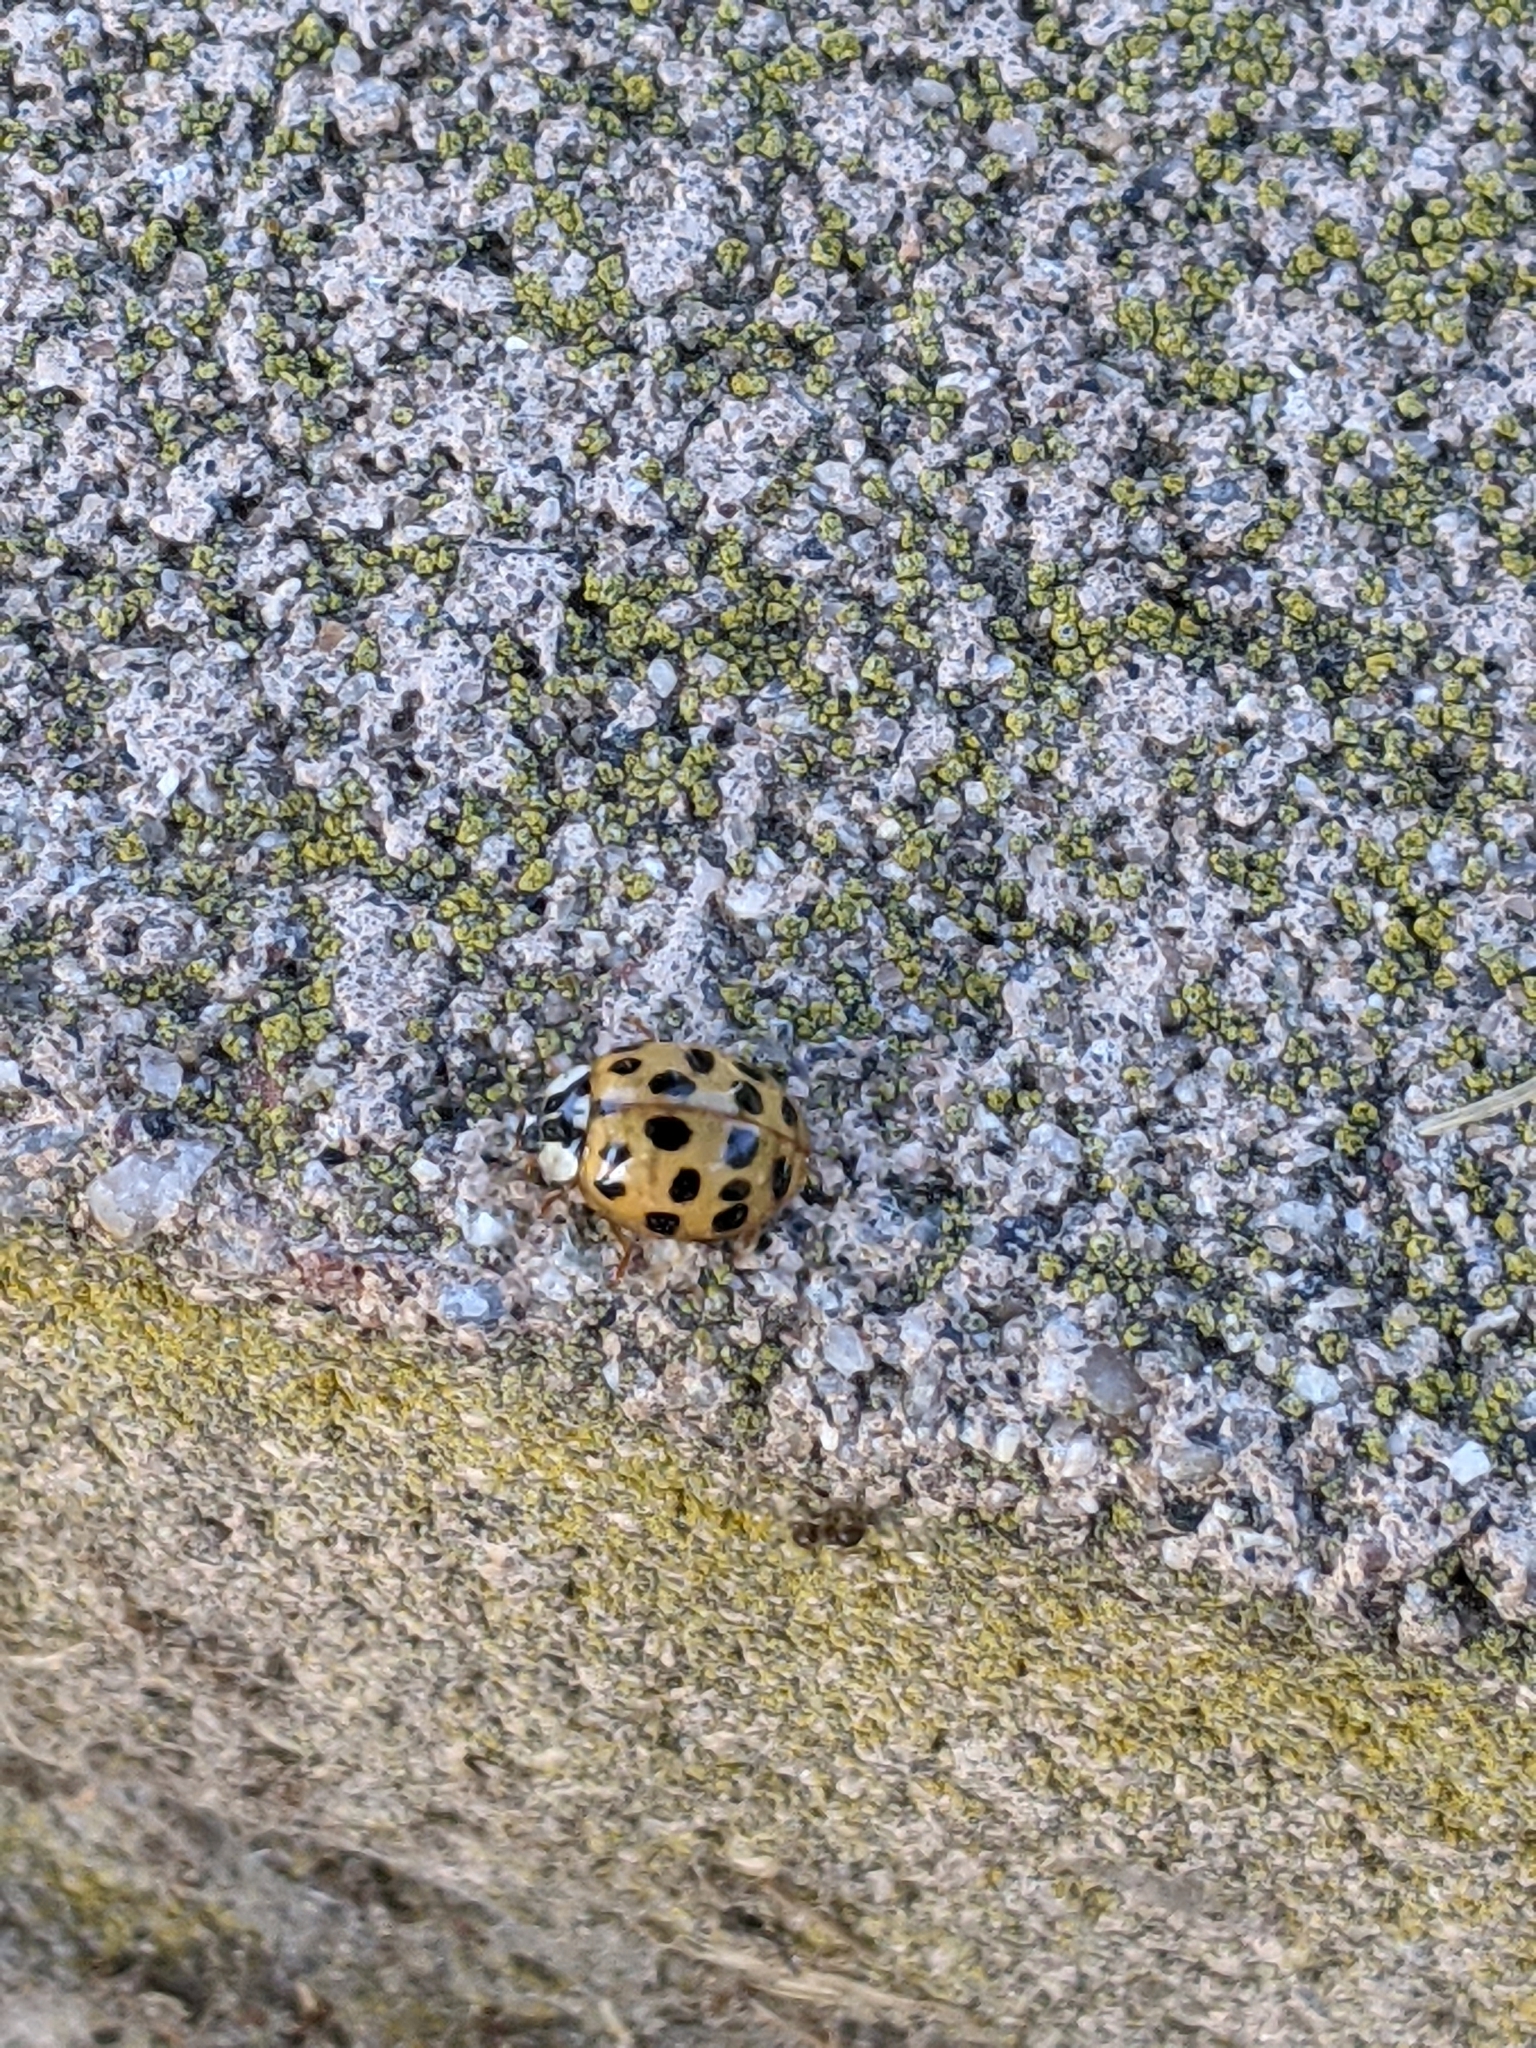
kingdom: Animalia
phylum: Arthropoda
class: Insecta
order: Coleoptera
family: Coccinellidae
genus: Harmonia
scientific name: Harmonia axyridis
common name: Harlequin ladybird
